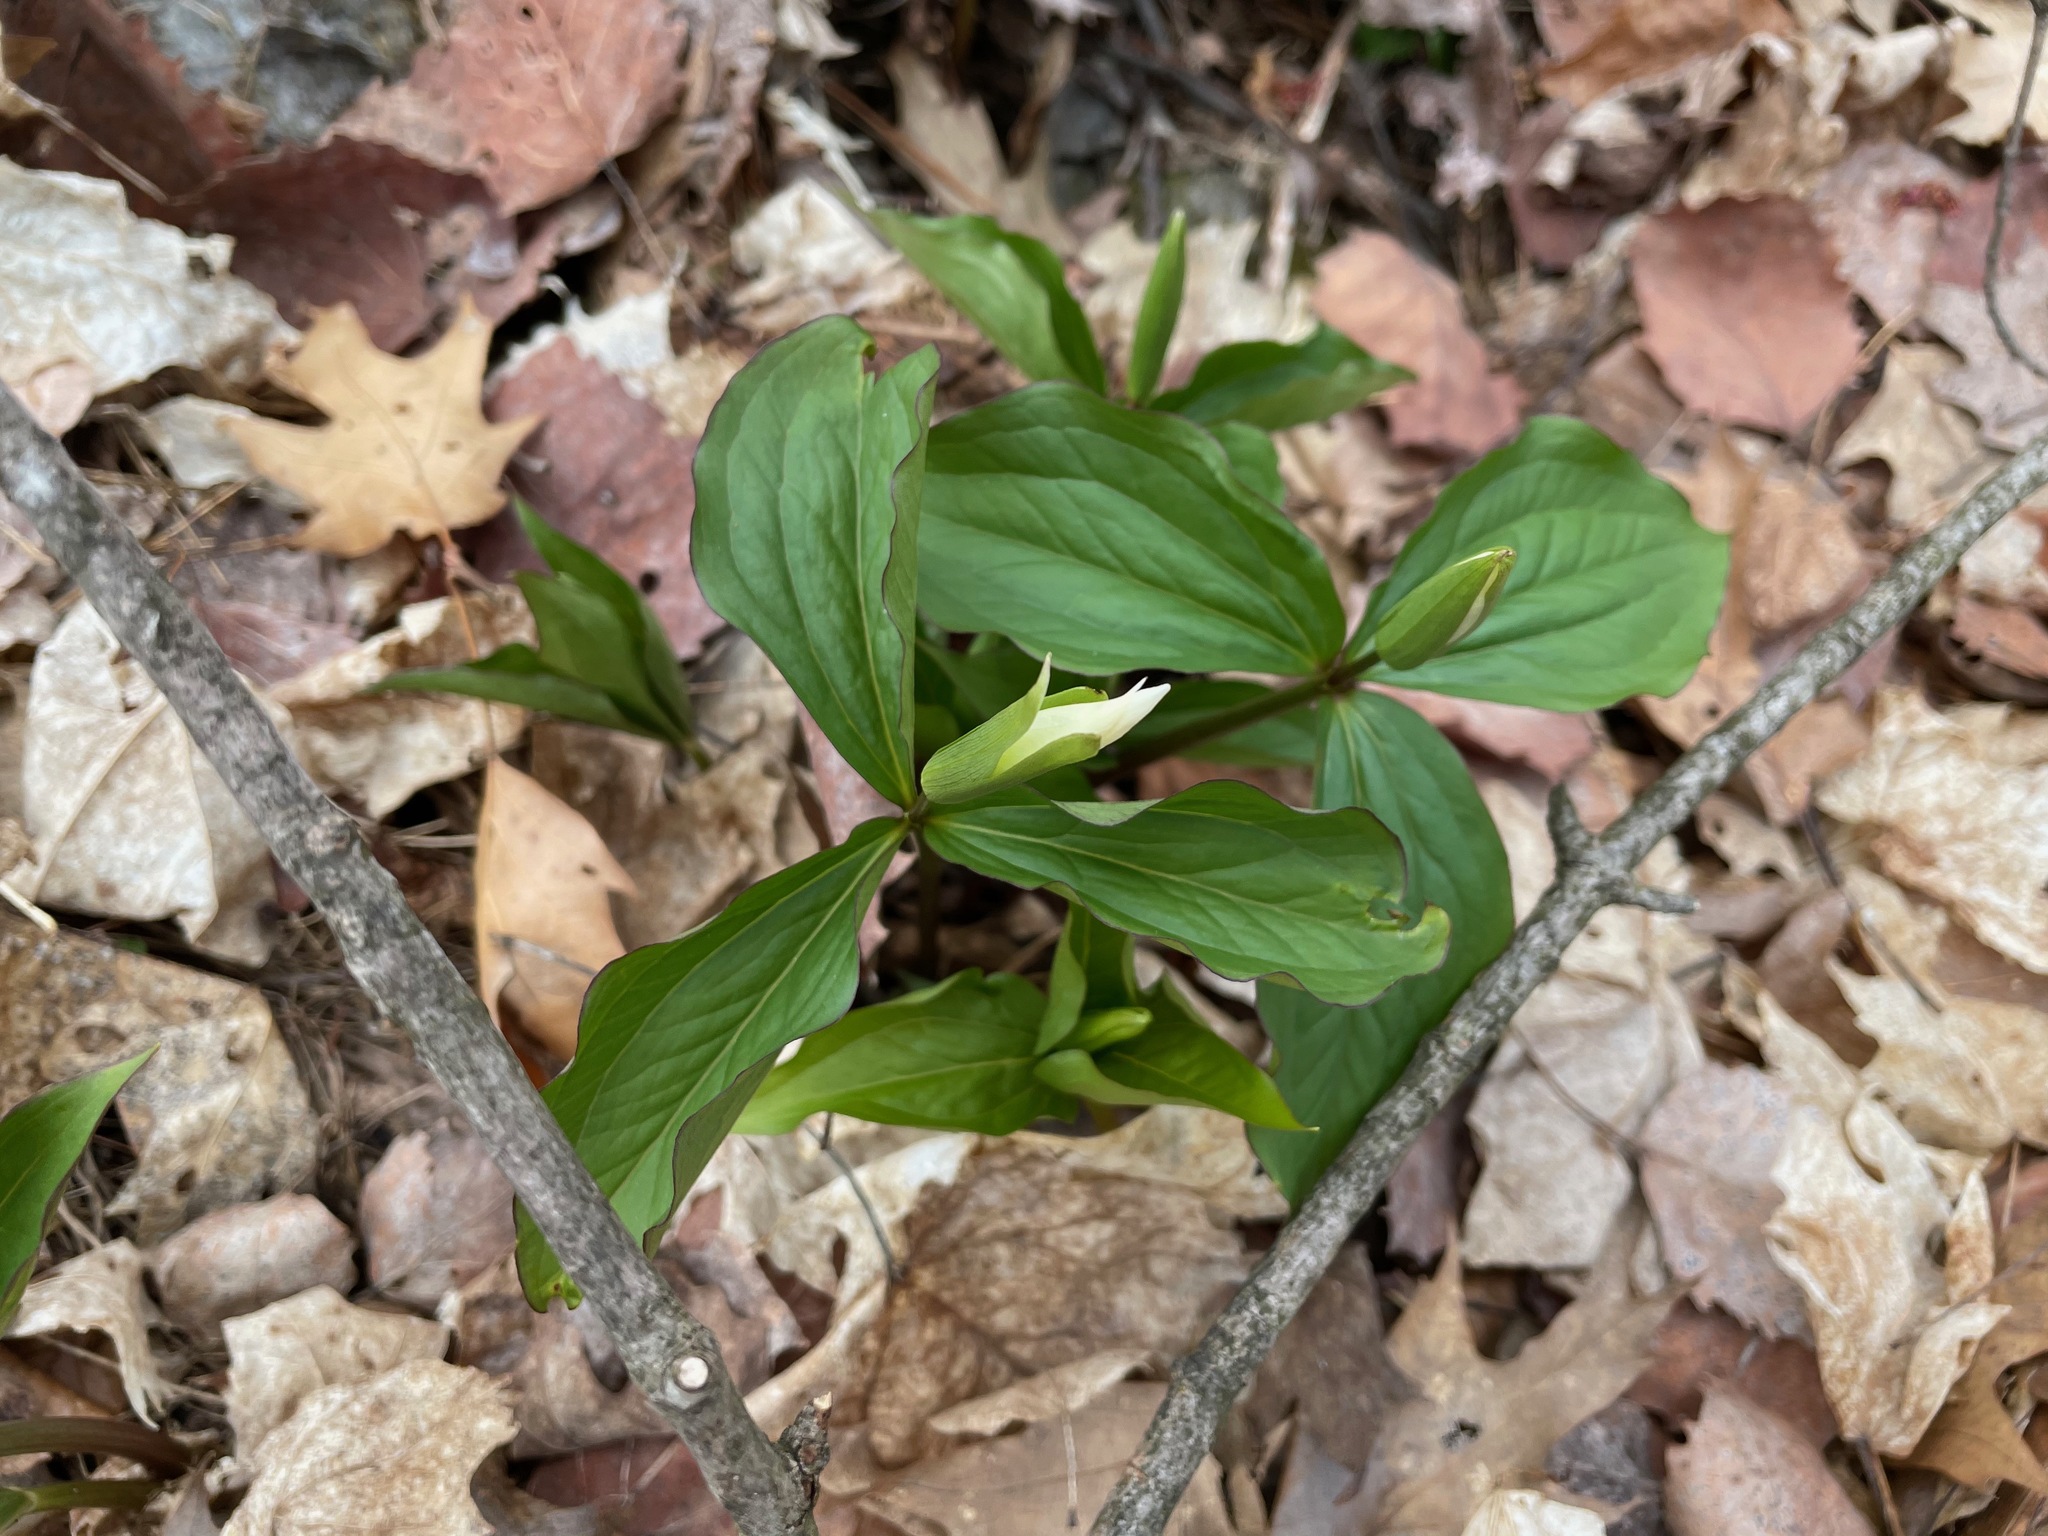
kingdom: Plantae
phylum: Tracheophyta
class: Liliopsida
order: Liliales
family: Melanthiaceae
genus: Trillium
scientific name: Trillium grandiflorum
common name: Great white trillium
